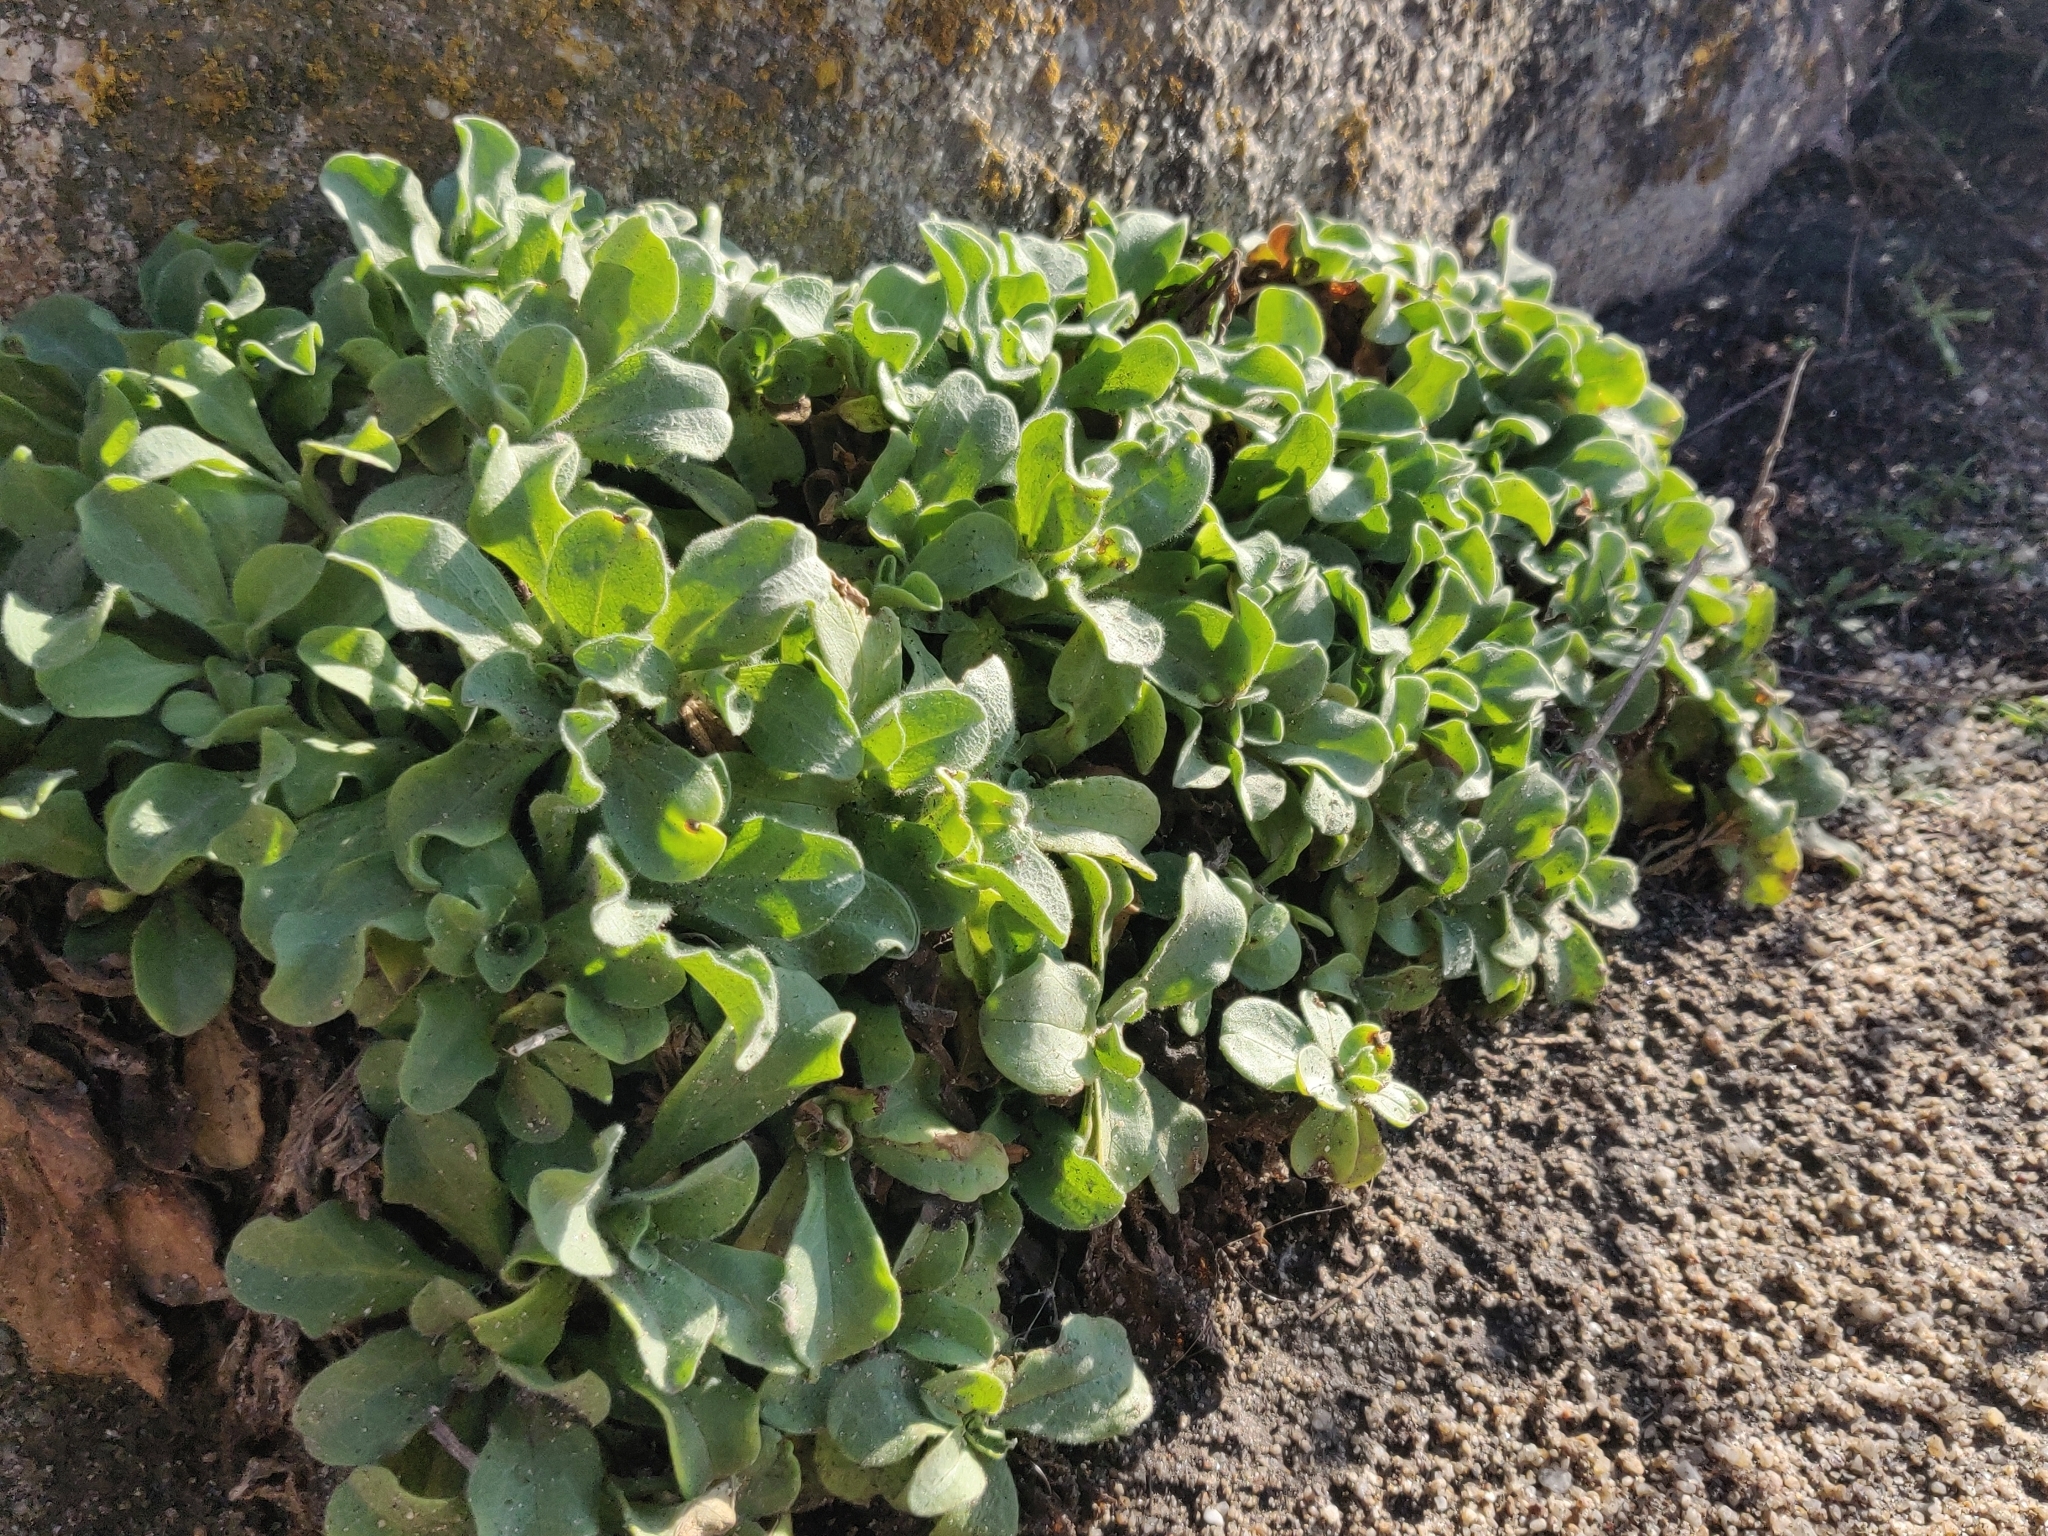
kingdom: Plantae
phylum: Tracheophyta
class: Magnoliopsida
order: Asterales
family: Asteraceae
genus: Erigeron
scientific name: Erigeron glaucus
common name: Seaside daisy
